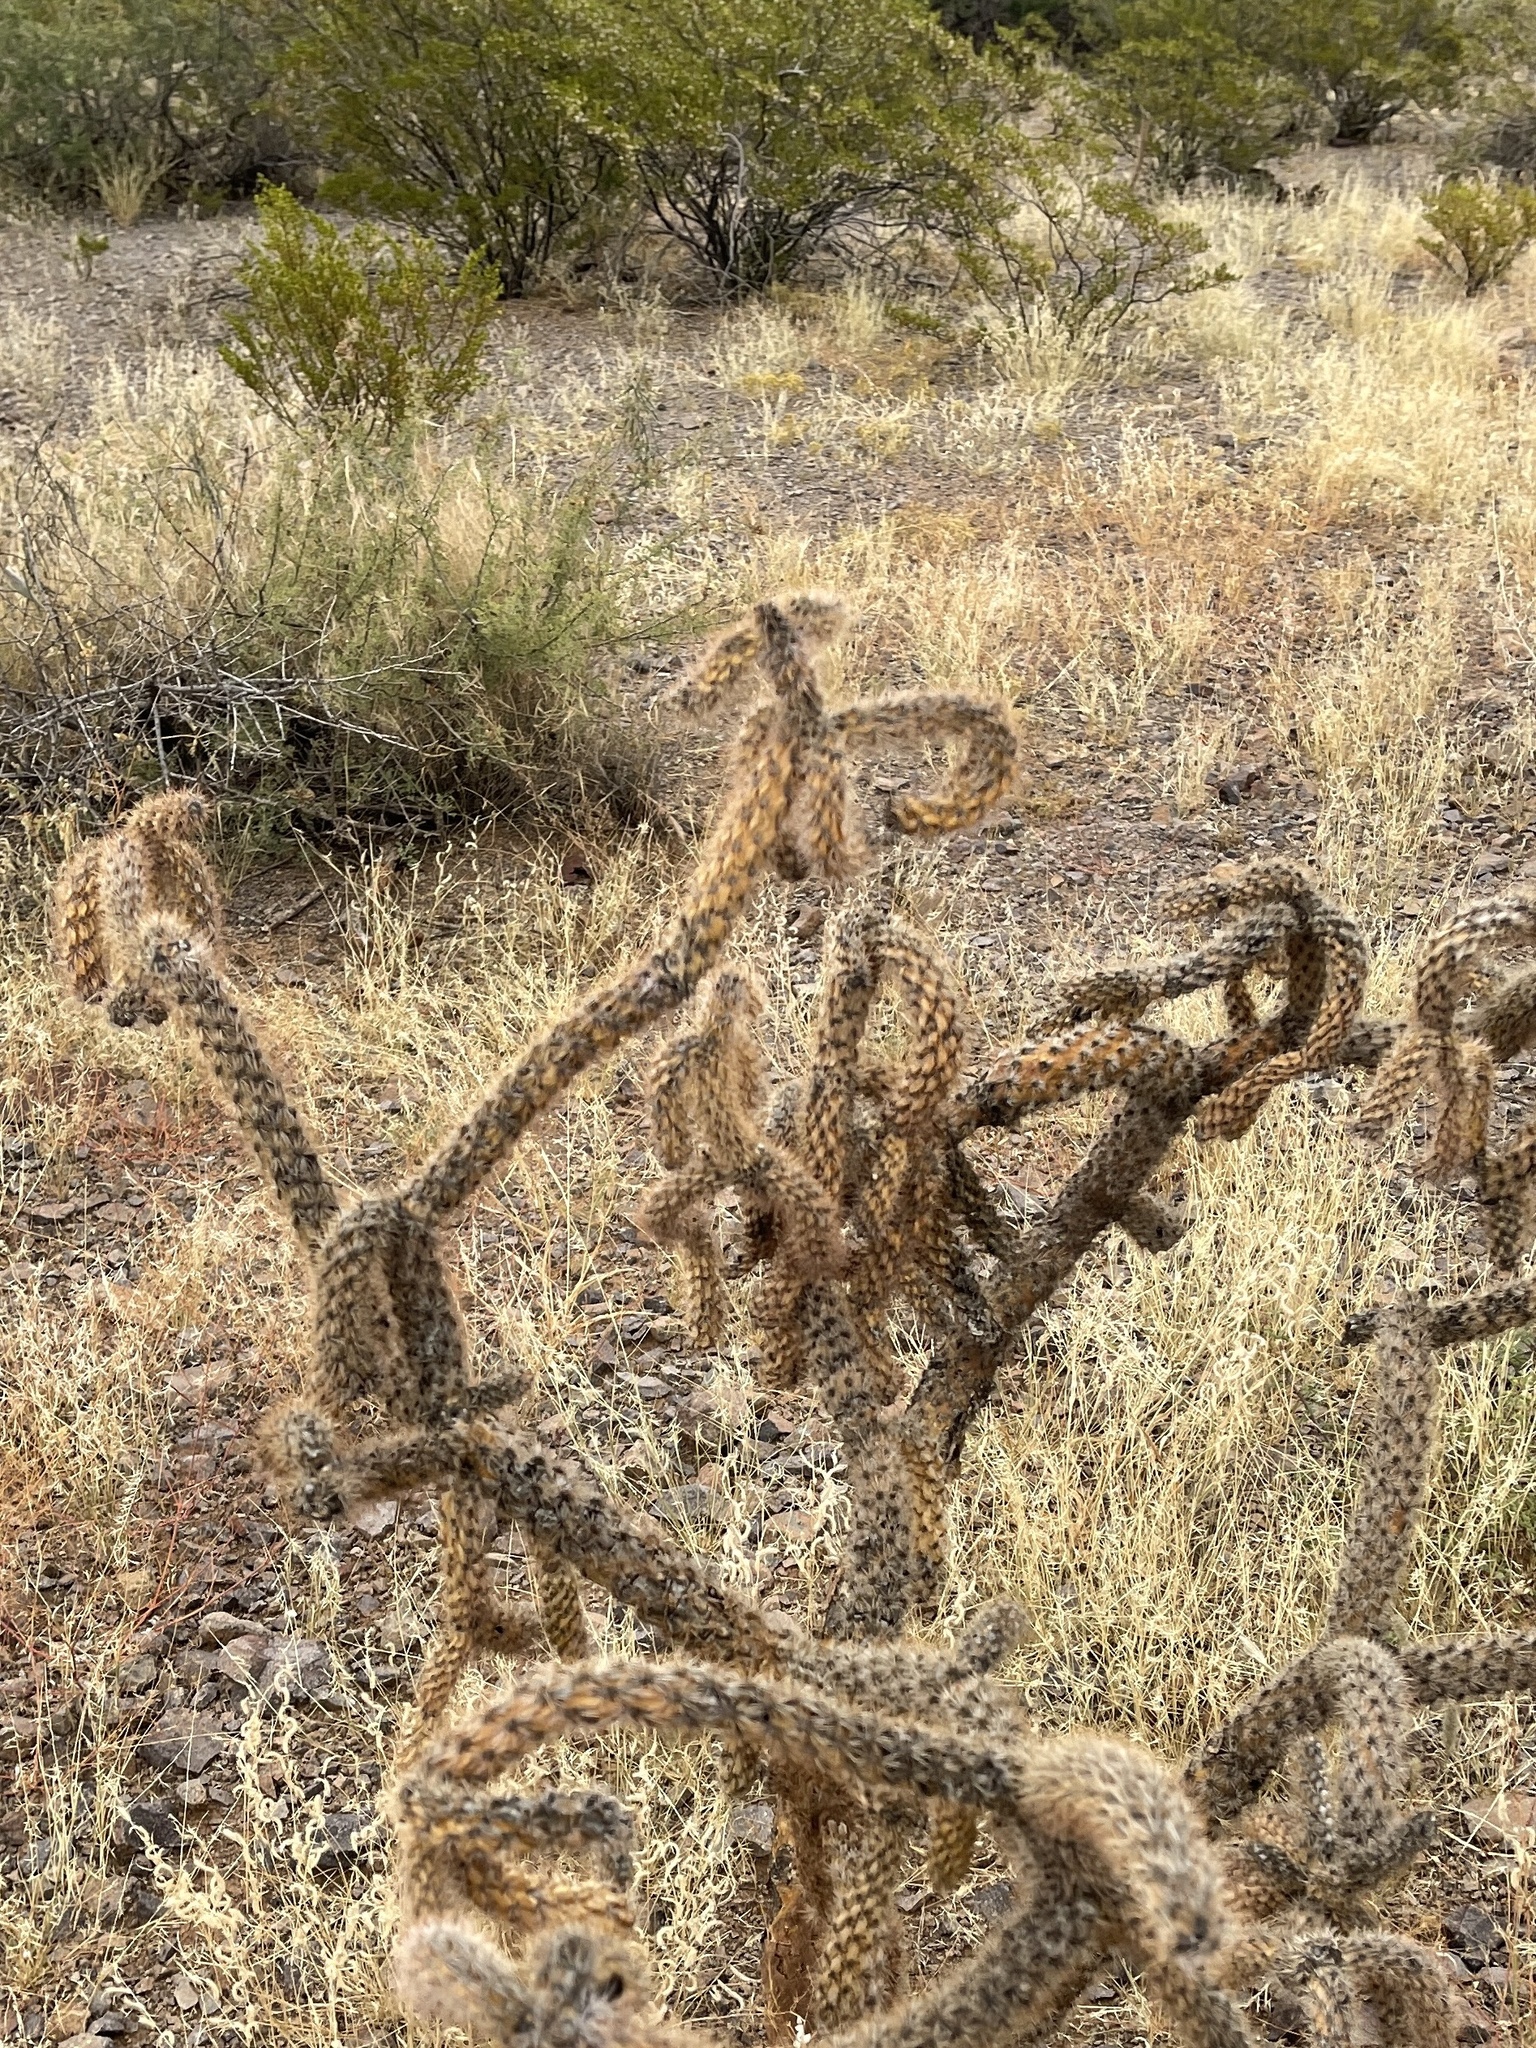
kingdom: Plantae
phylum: Tracheophyta
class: Magnoliopsida
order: Caryophyllales
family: Cactaceae
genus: Cylindropuntia
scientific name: Cylindropuntia imbricata
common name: Candelabrum cactus
